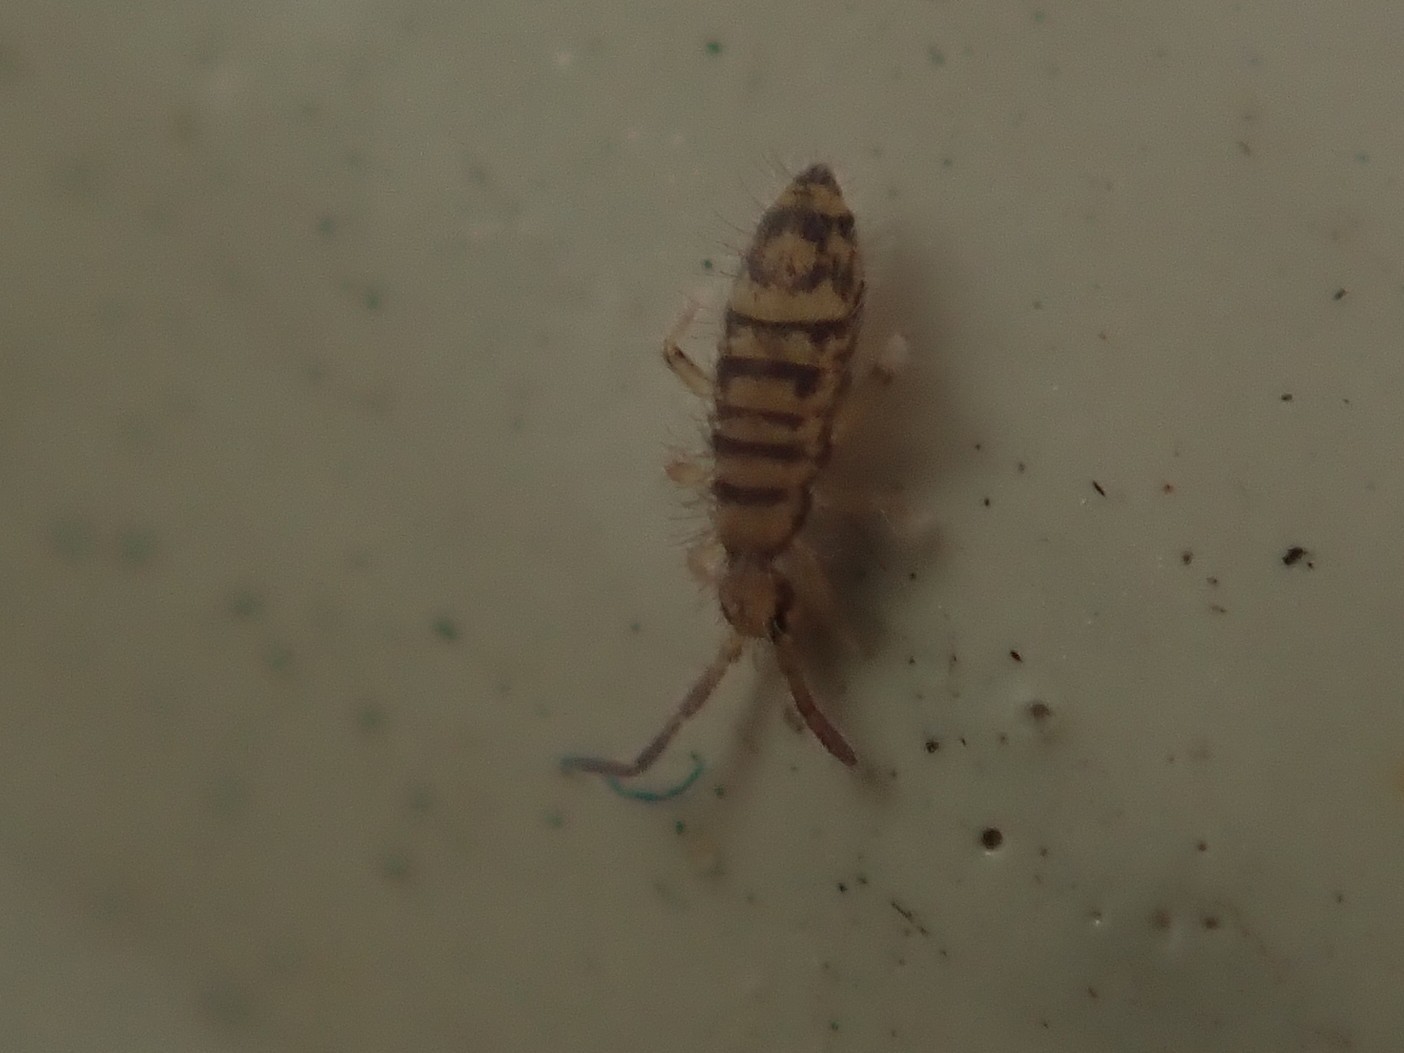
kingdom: Animalia
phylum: Arthropoda
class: Collembola
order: Entomobryomorpha
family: Entomobryidae
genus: Entomobrya
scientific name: Entomobrya multifasciata
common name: Springtail
